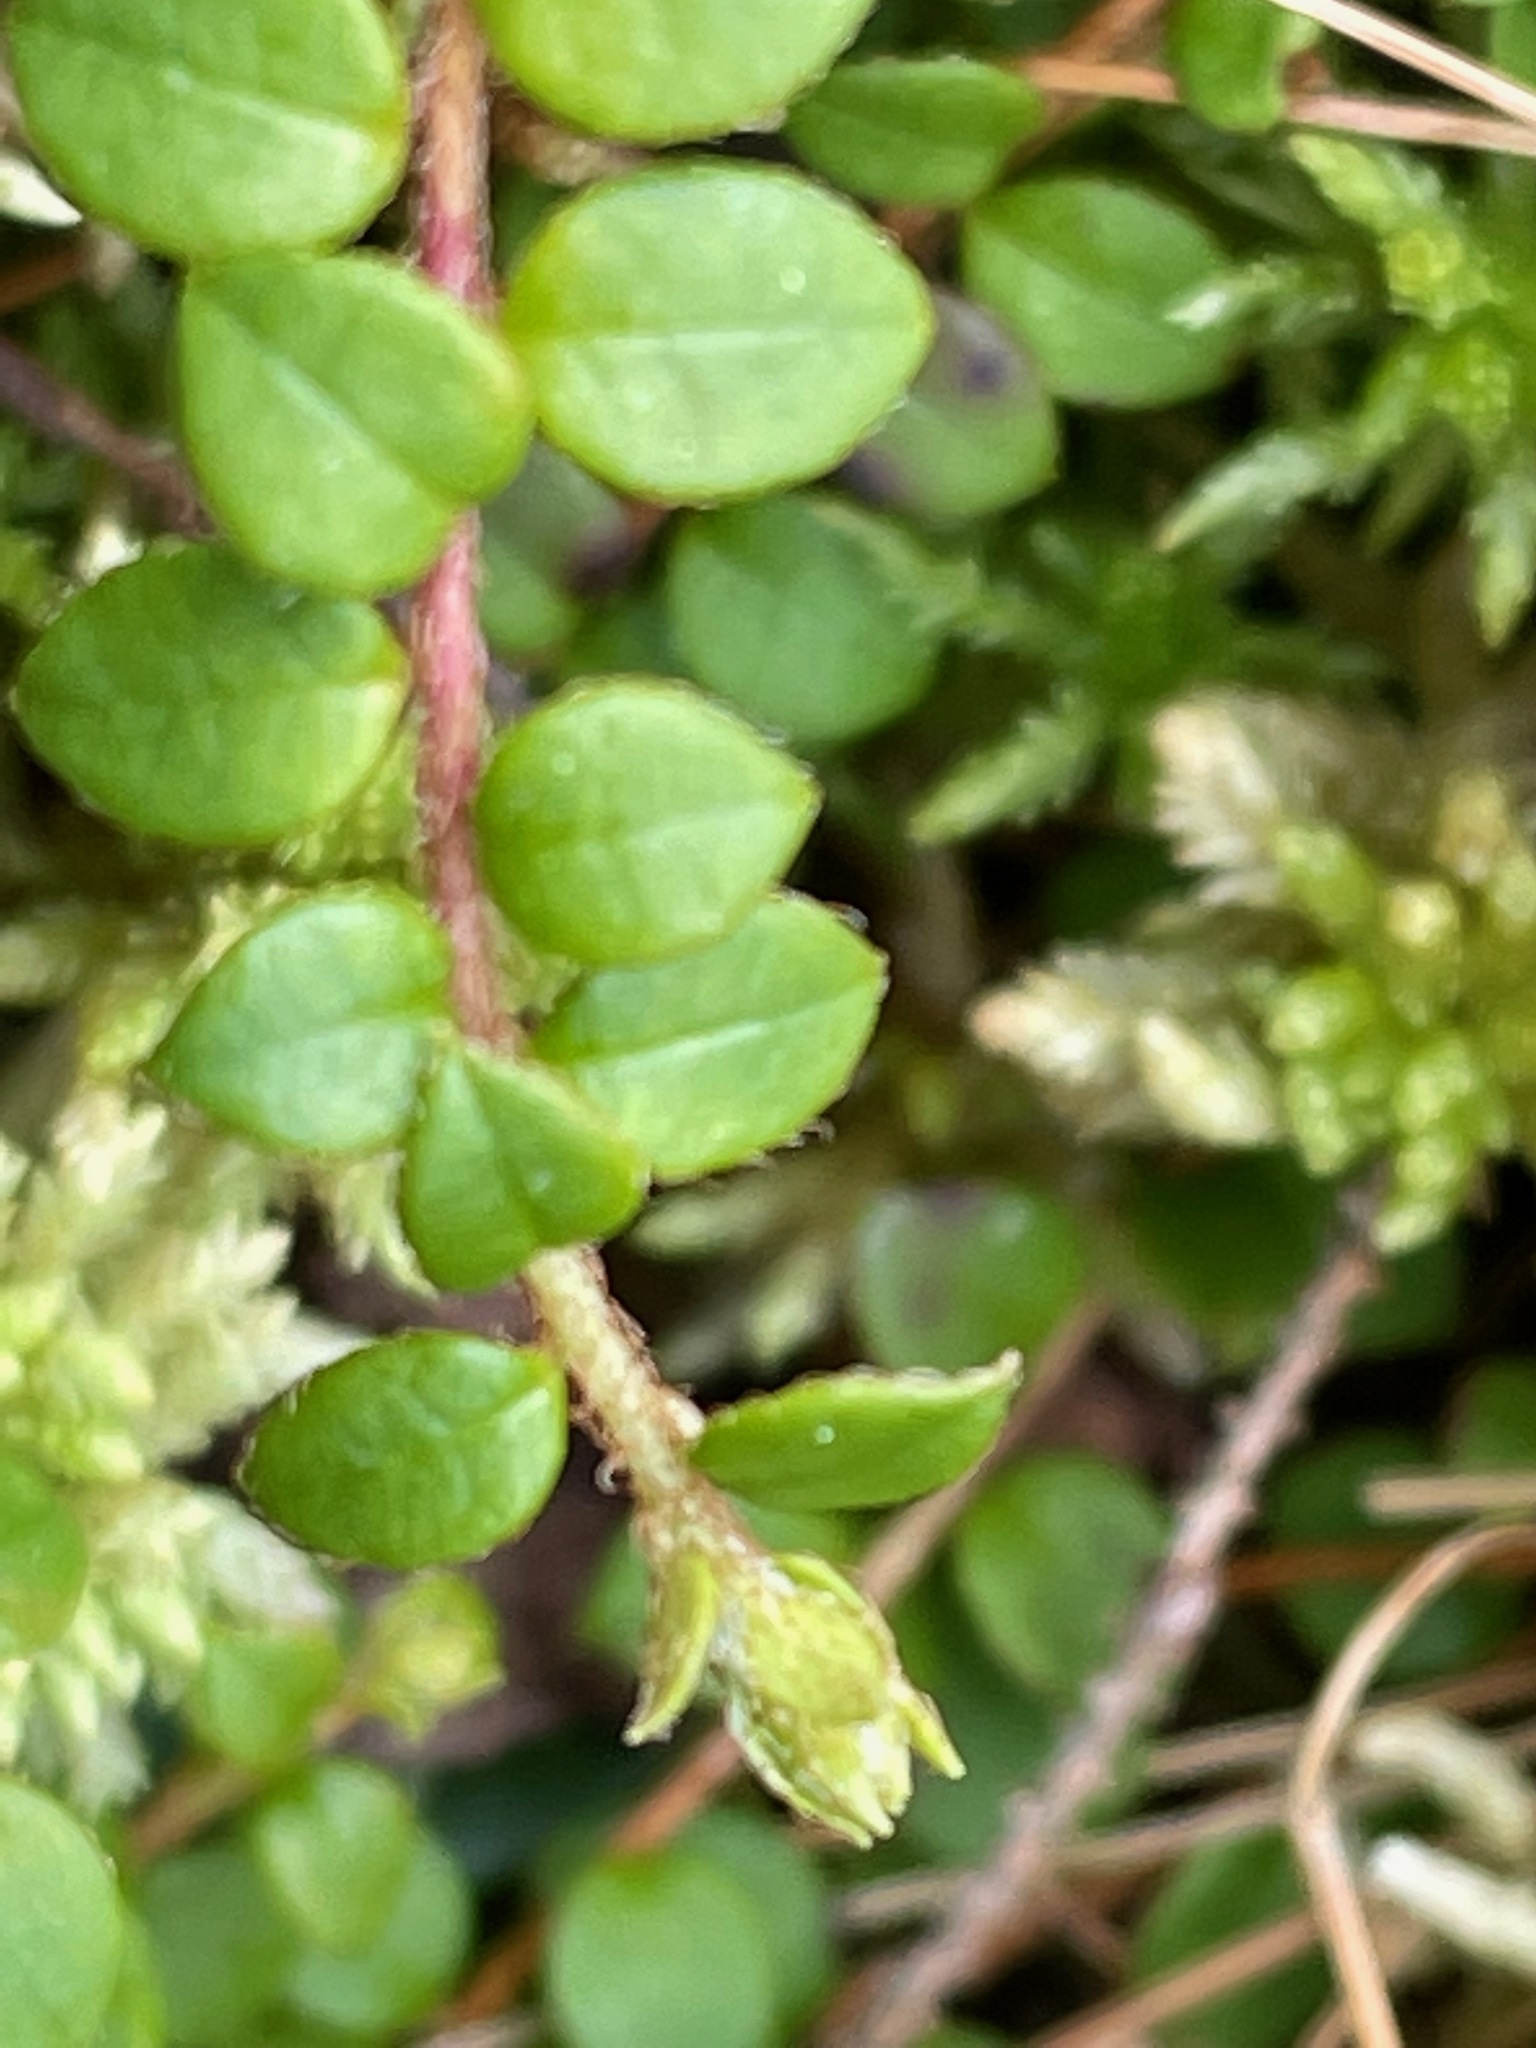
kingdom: Plantae
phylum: Tracheophyta
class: Magnoliopsida
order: Ericales
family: Ericaceae
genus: Gaultheria
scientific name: Gaultheria hispidula
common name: Cancer wintergreen
